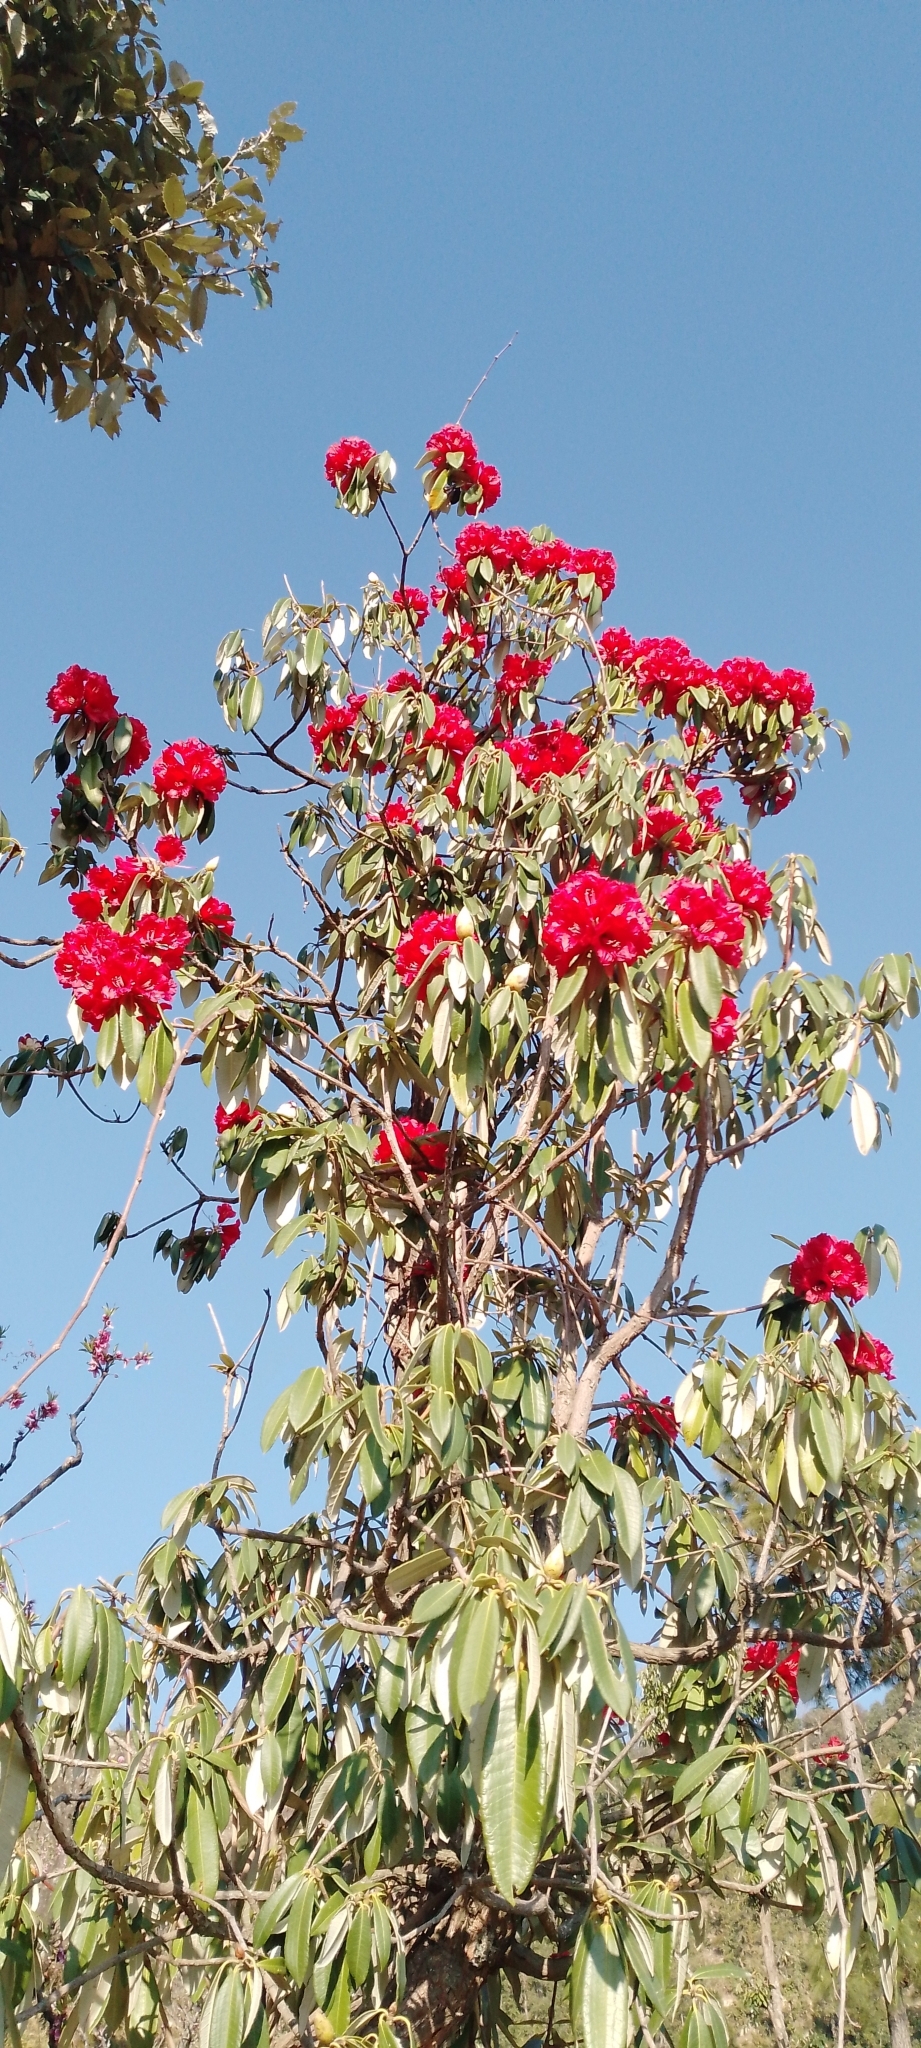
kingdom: Plantae
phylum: Tracheophyta
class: Magnoliopsida
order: Ericales
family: Ericaceae
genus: Rhododendron
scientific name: Rhododendron arboreum
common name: Tree rhododendron
